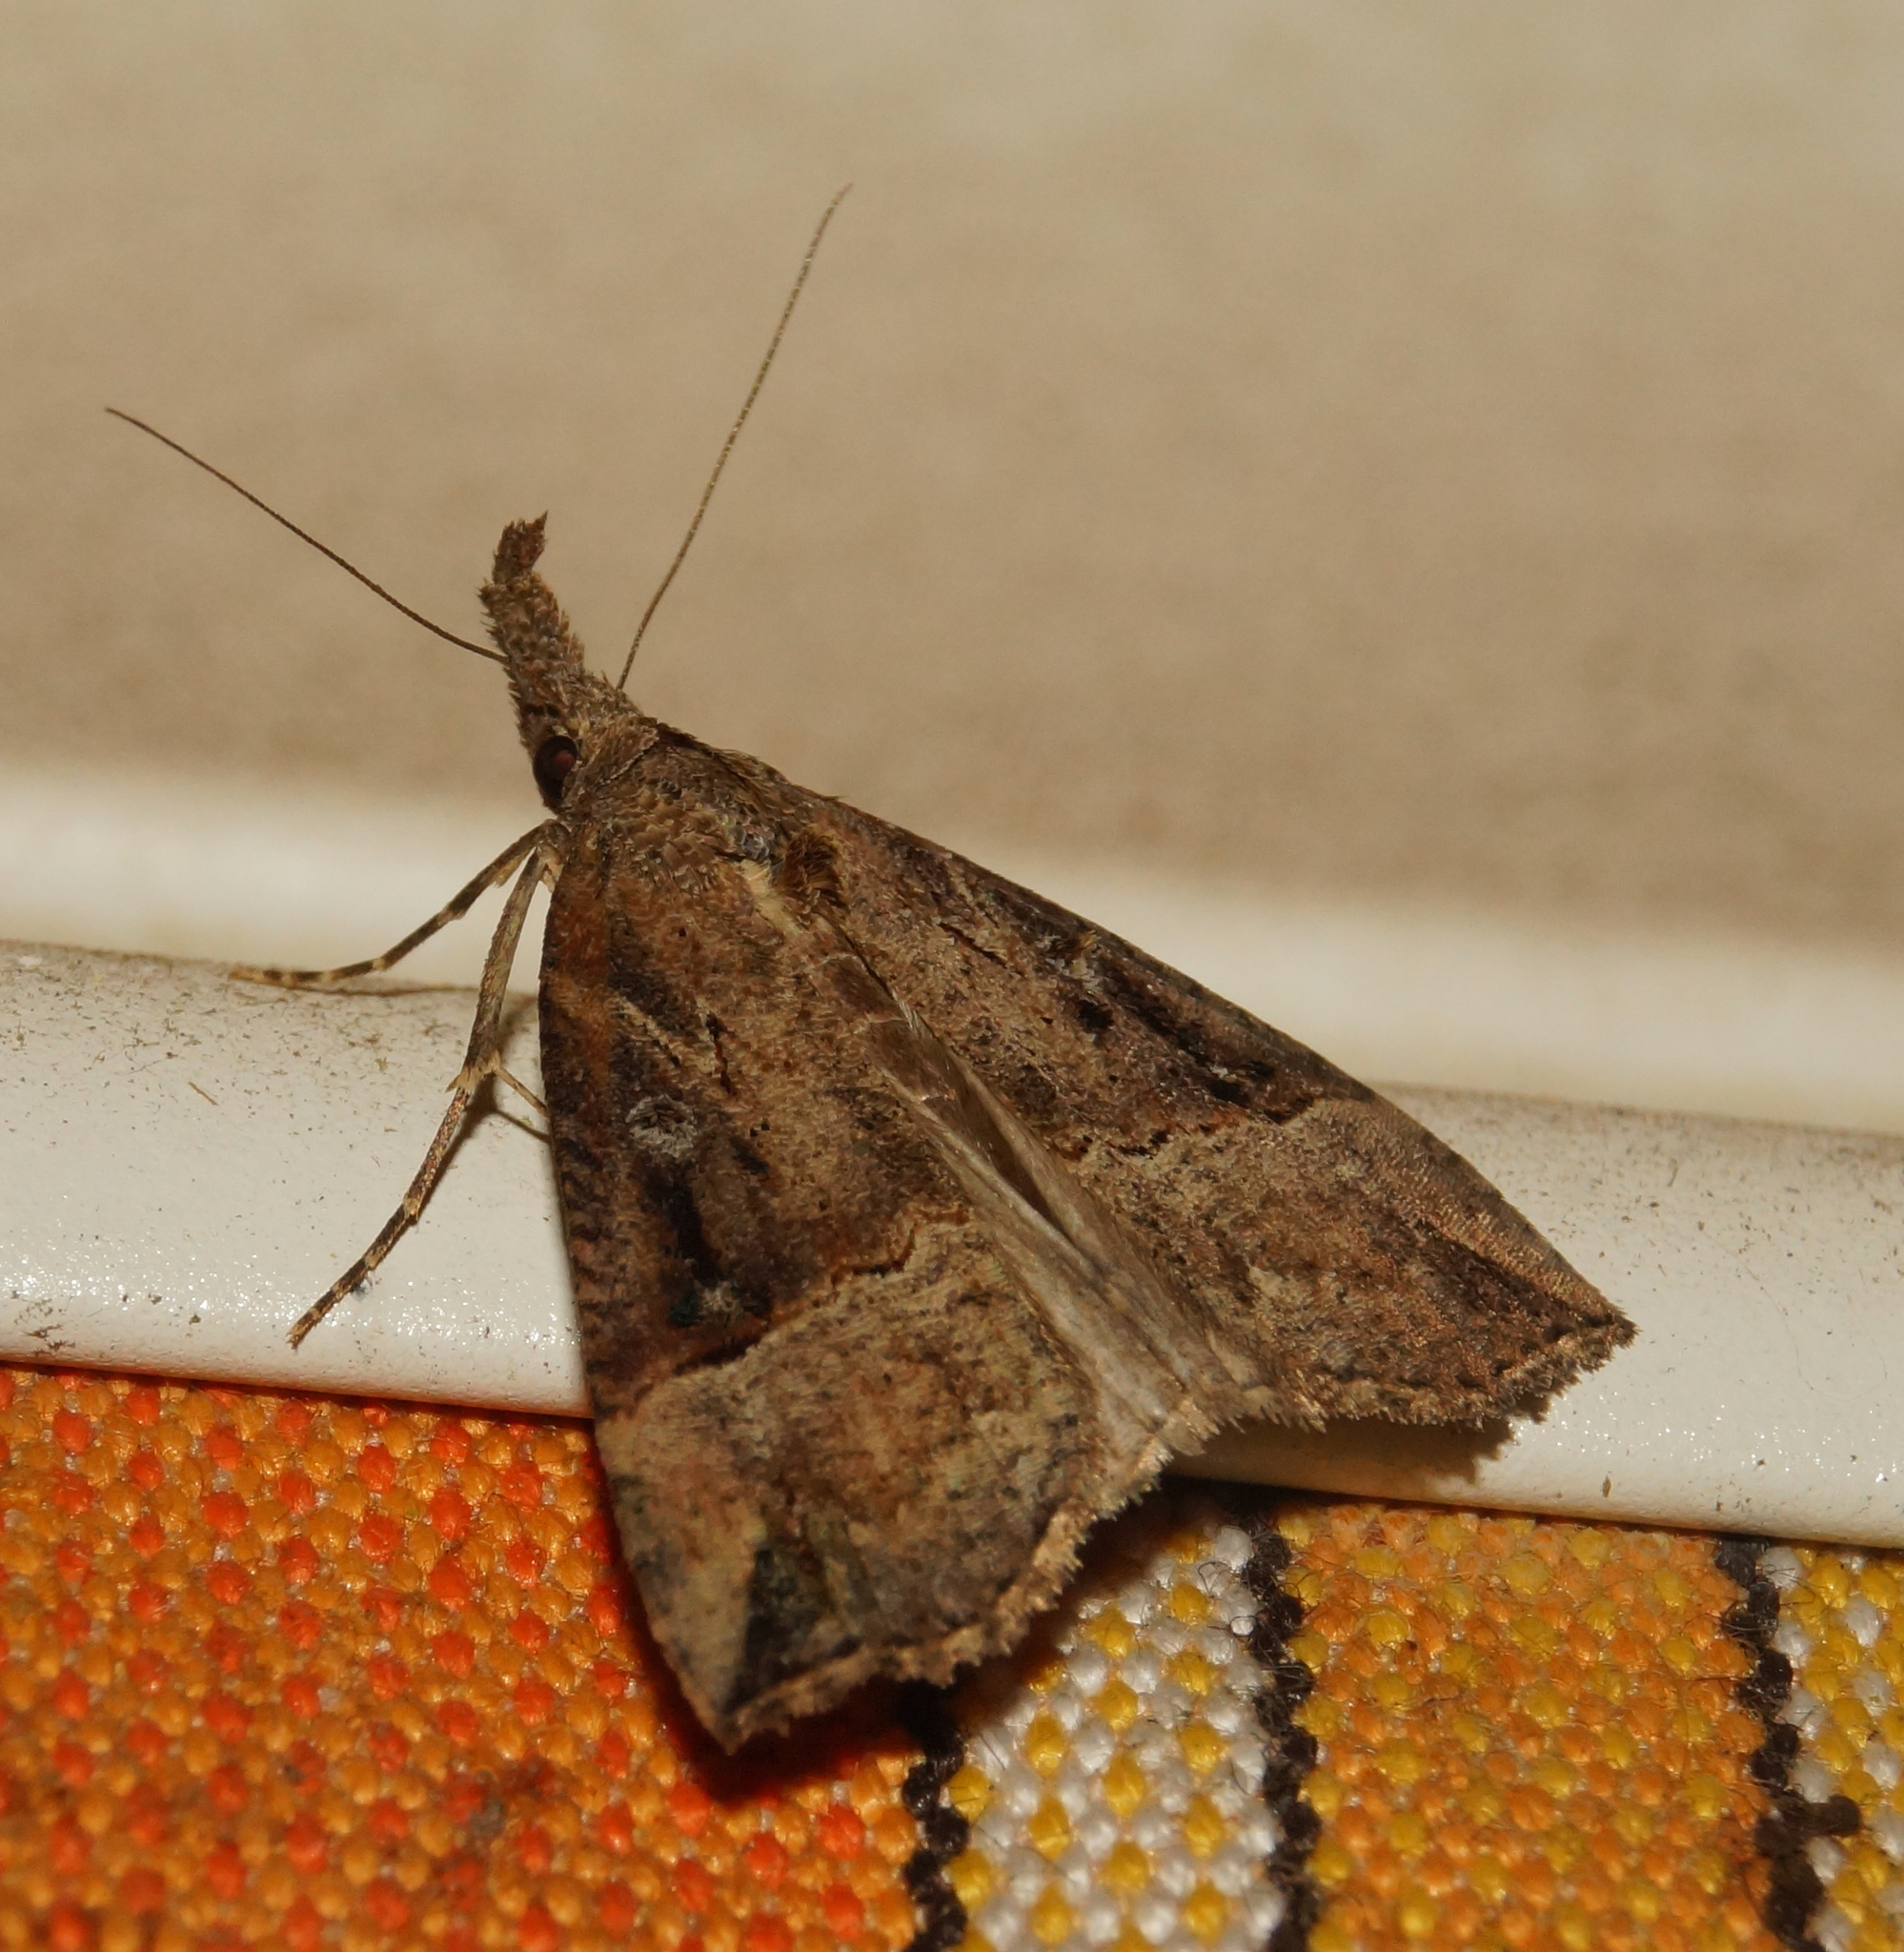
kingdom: Animalia
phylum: Arthropoda
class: Insecta
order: Lepidoptera
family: Erebidae
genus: Hypena
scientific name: Hypena rostralis
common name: Buttoned snout
